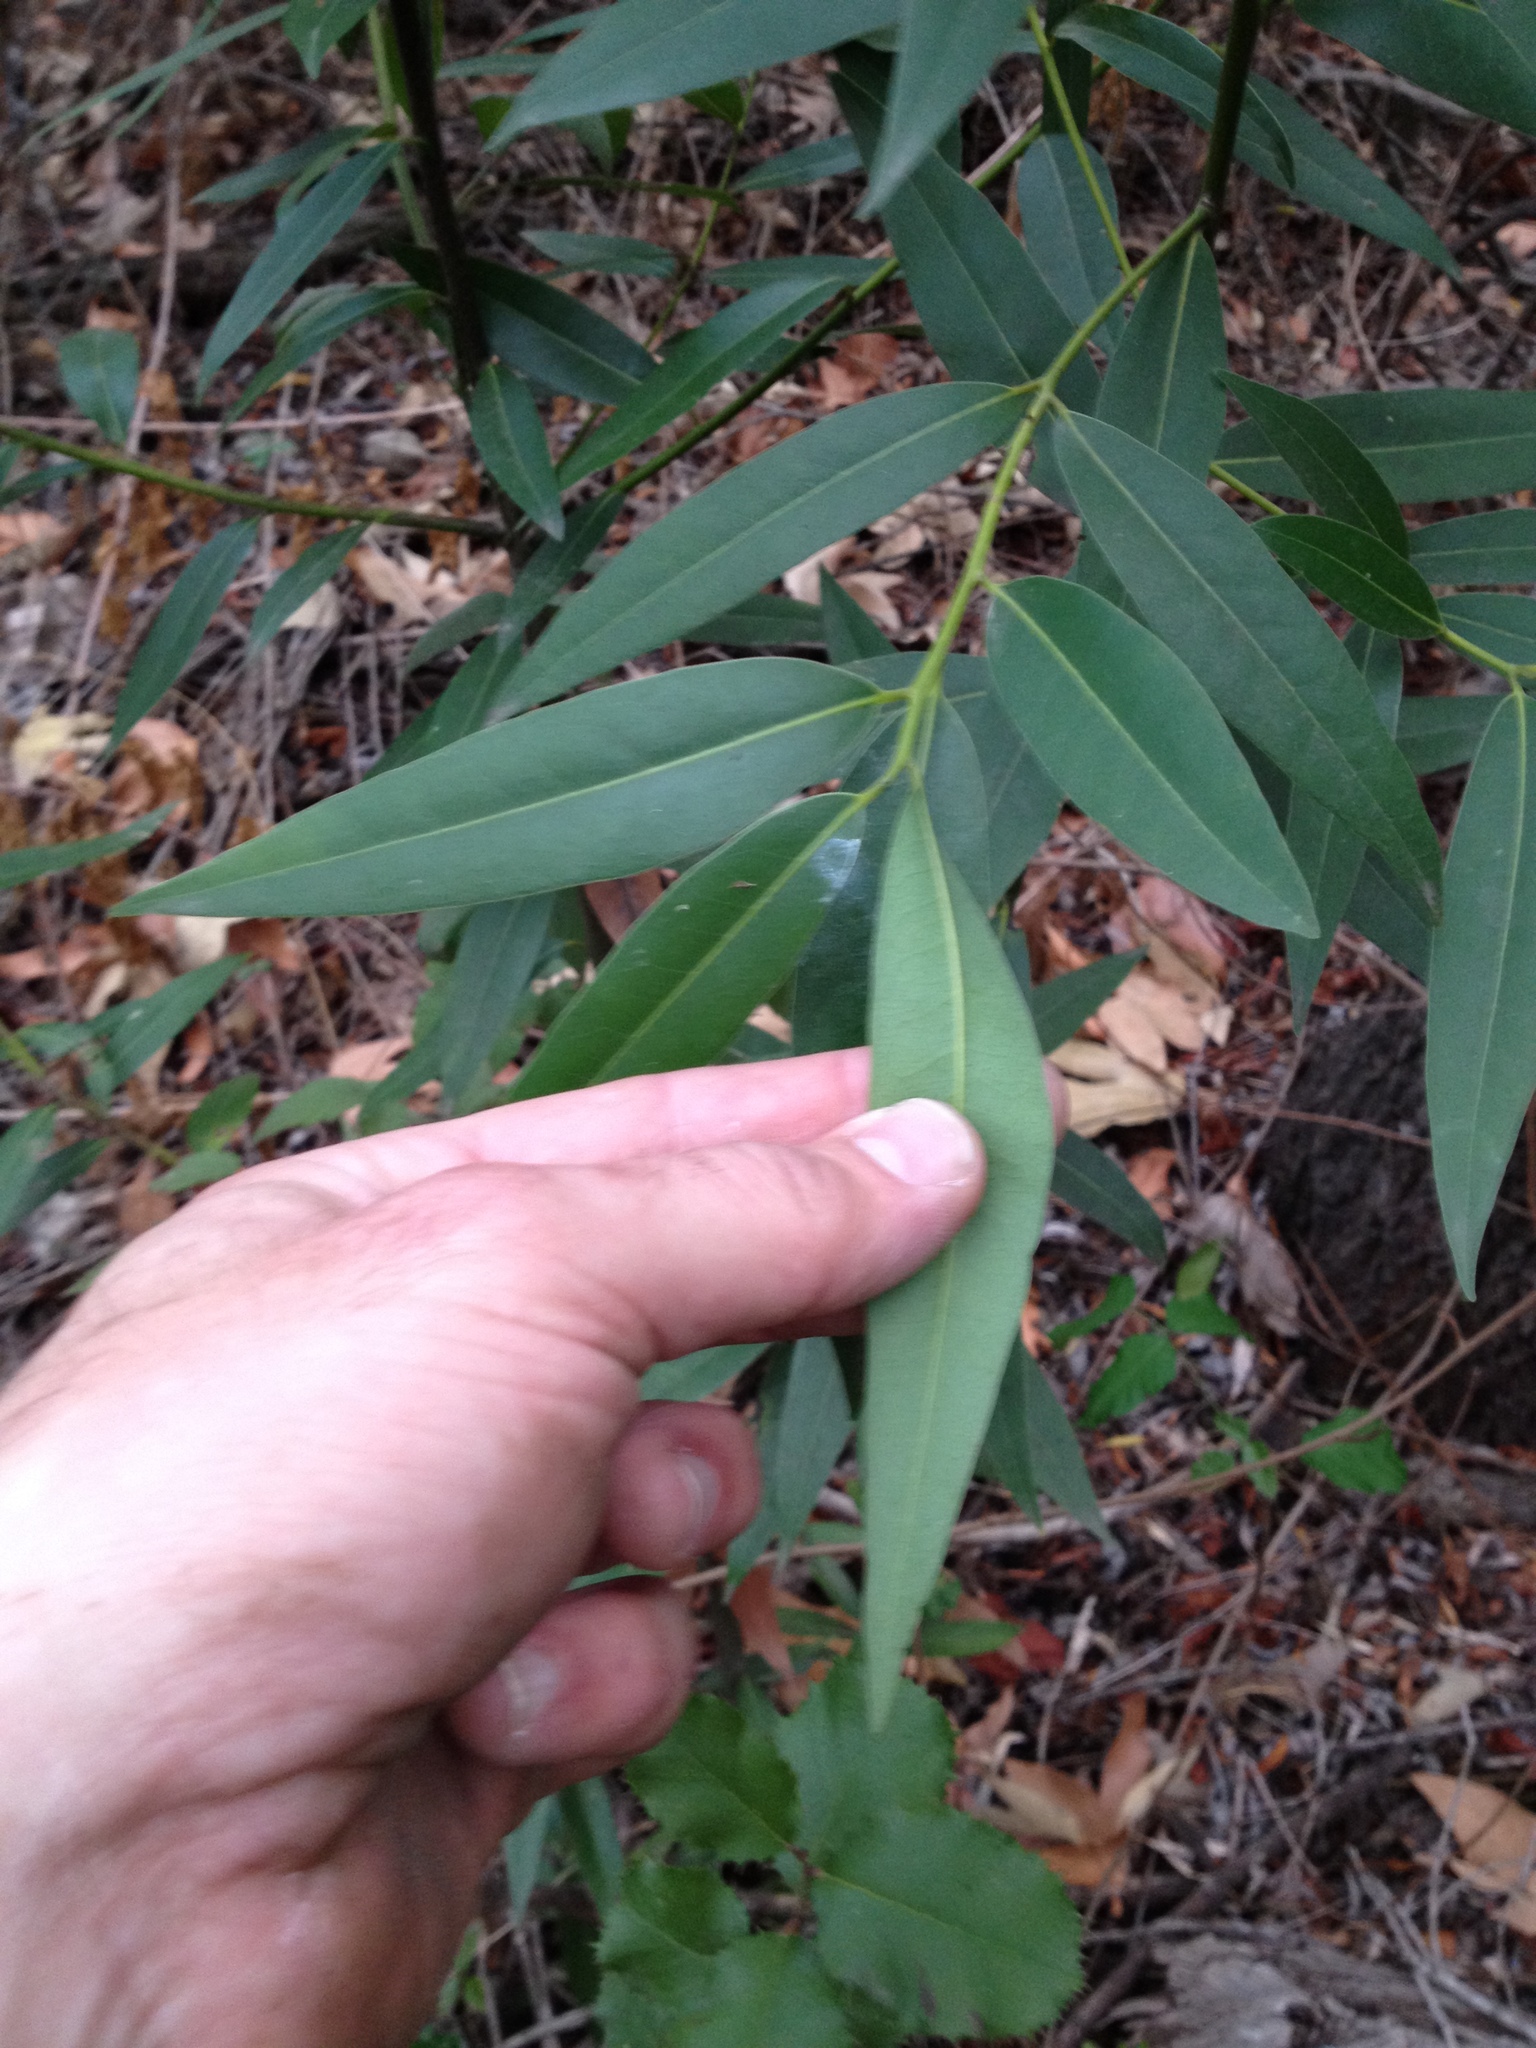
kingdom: Plantae
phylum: Tracheophyta
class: Magnoliopsida
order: Laurales
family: Lauraceae
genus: Umbellularia
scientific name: Umbellularia californica
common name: California bay
